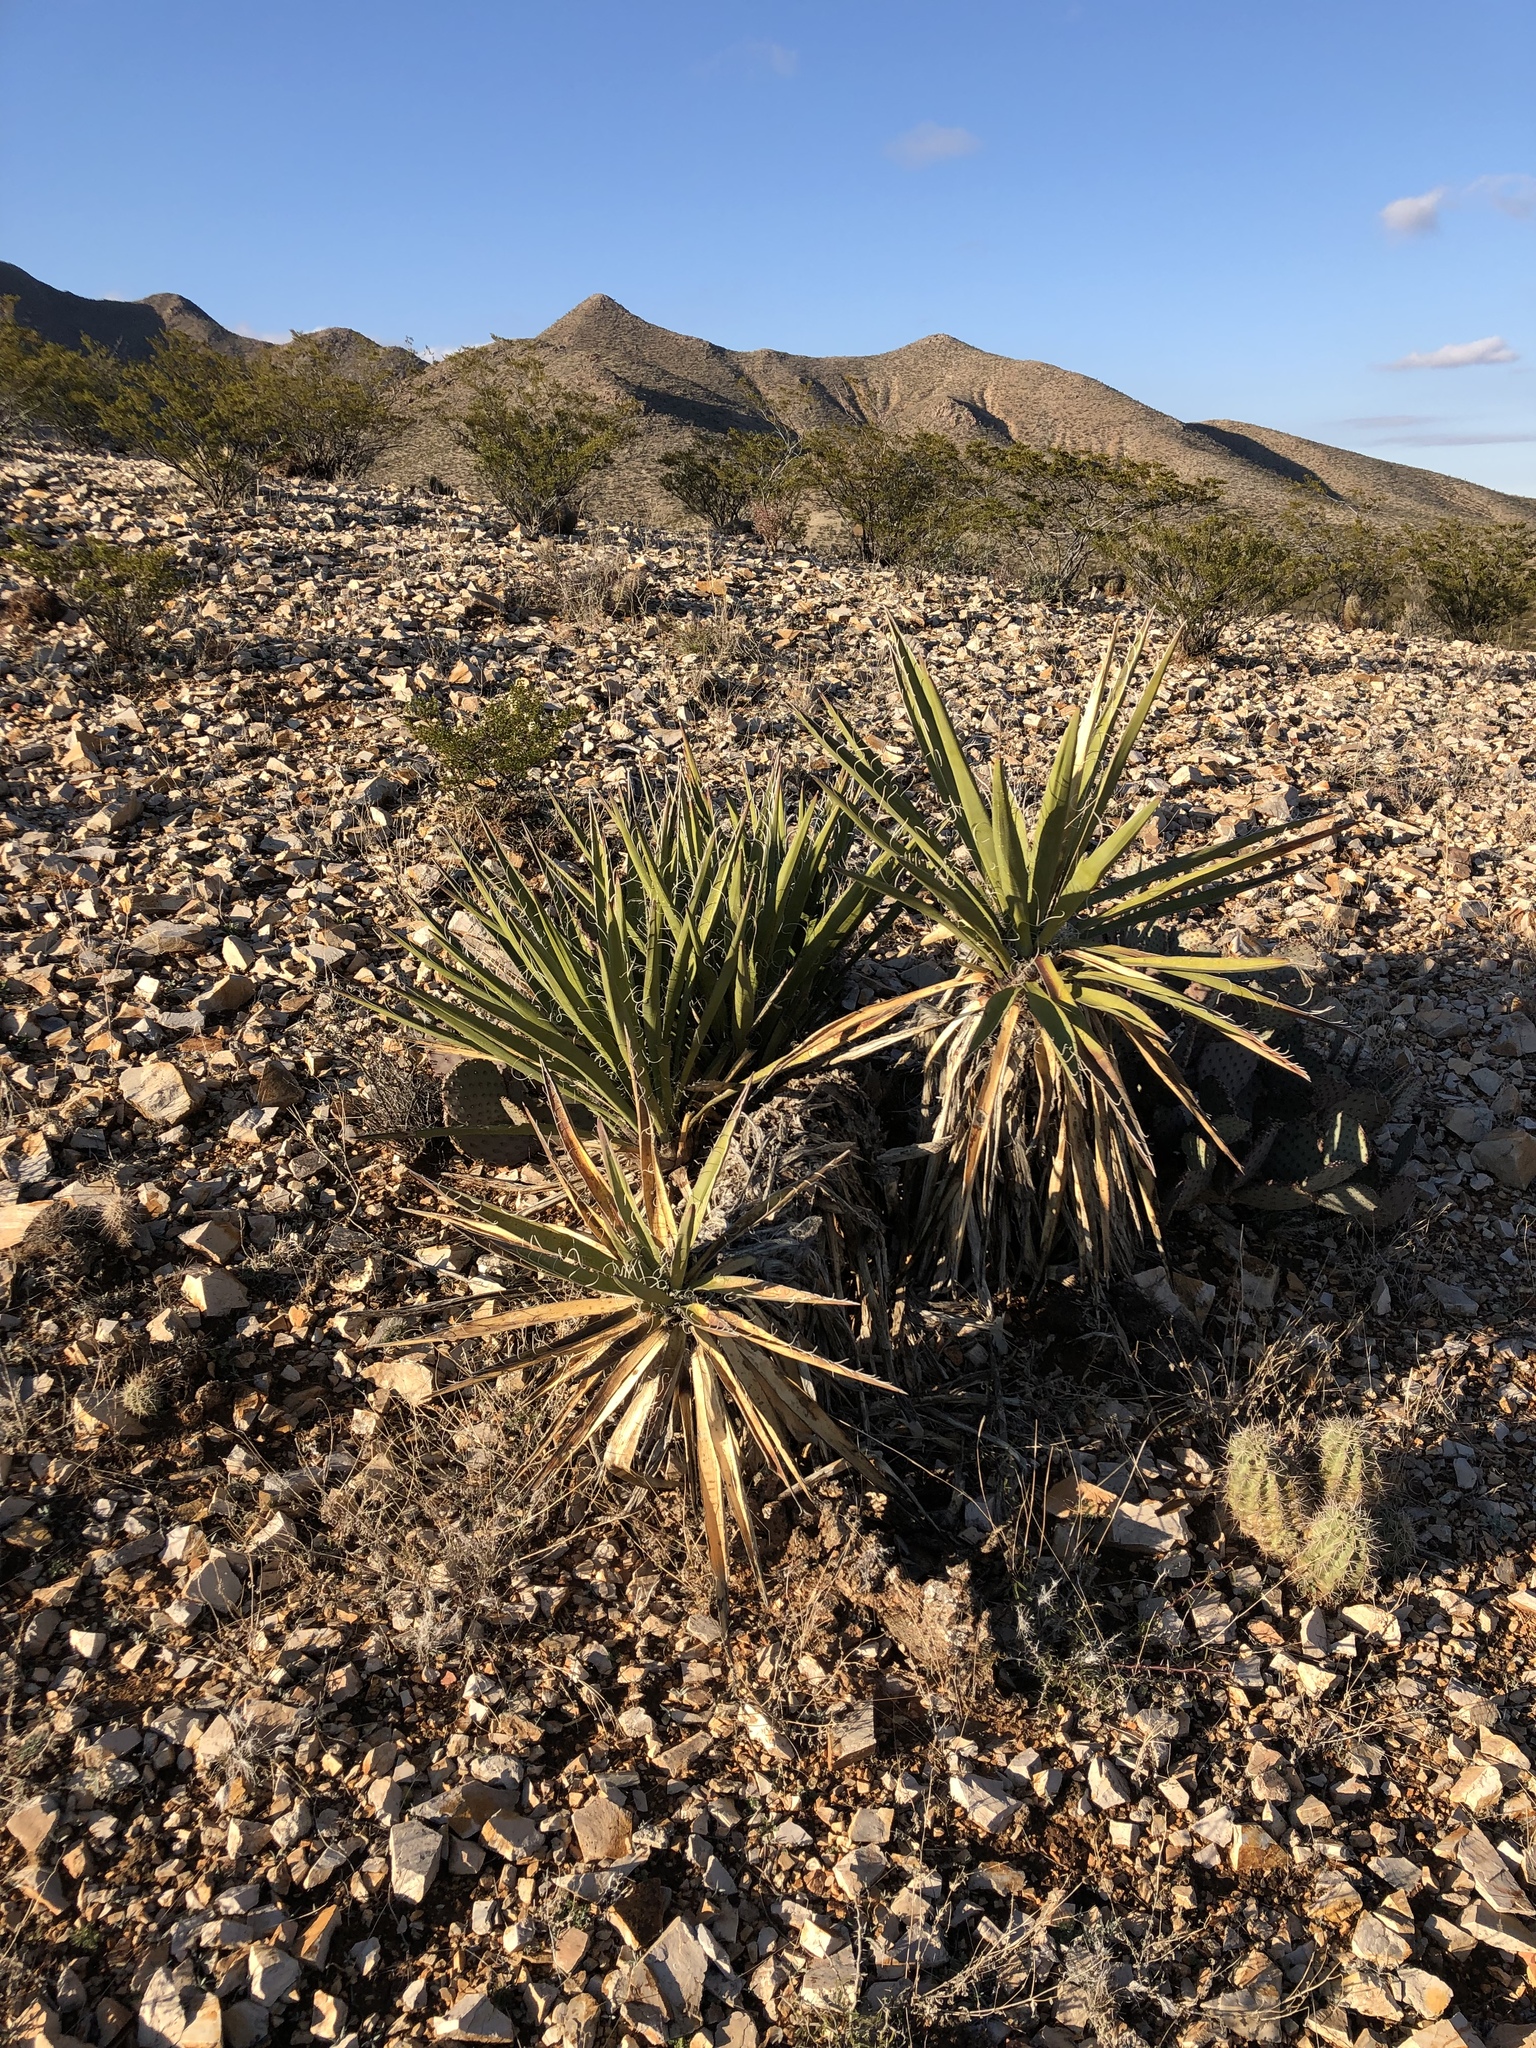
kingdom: Plantae
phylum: Tracheophyta
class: Liliopsida
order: Asparagales
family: Asparagaceae
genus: Yucca
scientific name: Yucca baccata
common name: Banana yucca
